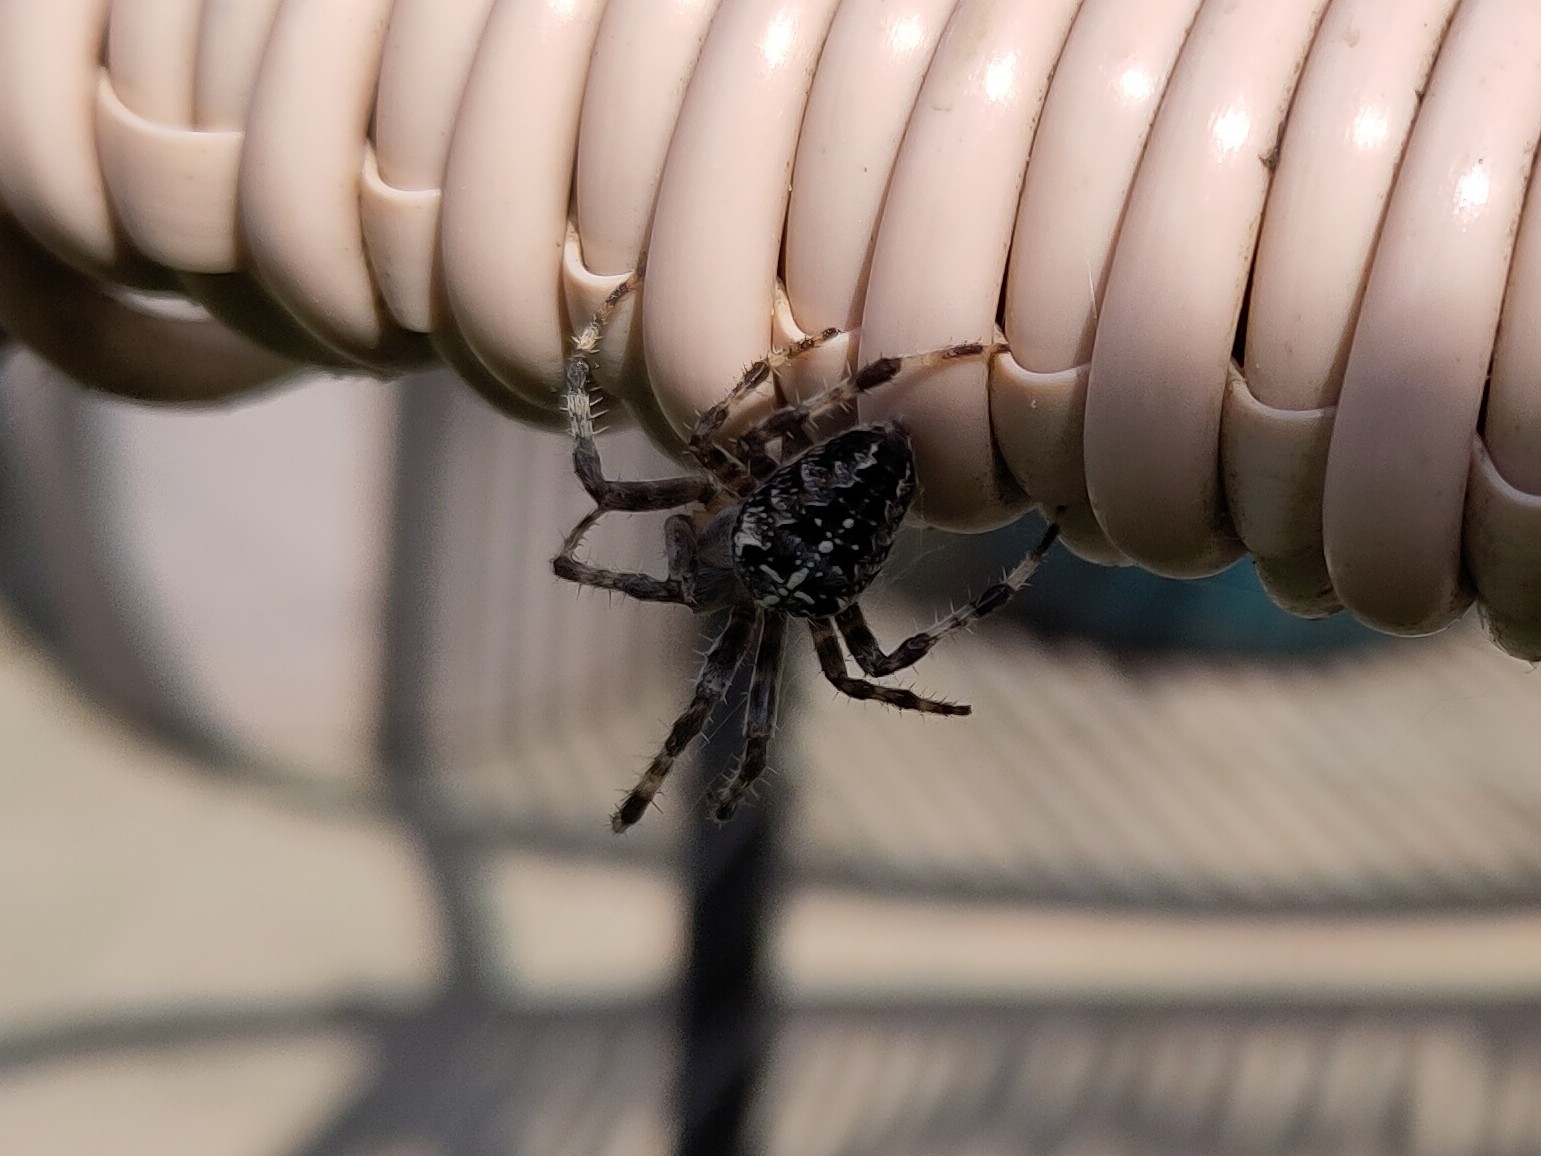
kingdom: Animalia
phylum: Arthropoda
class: Arachnida
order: Araneae
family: Araneidae
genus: Araneus
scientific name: Araneus diadematus
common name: Cross orbweaver
